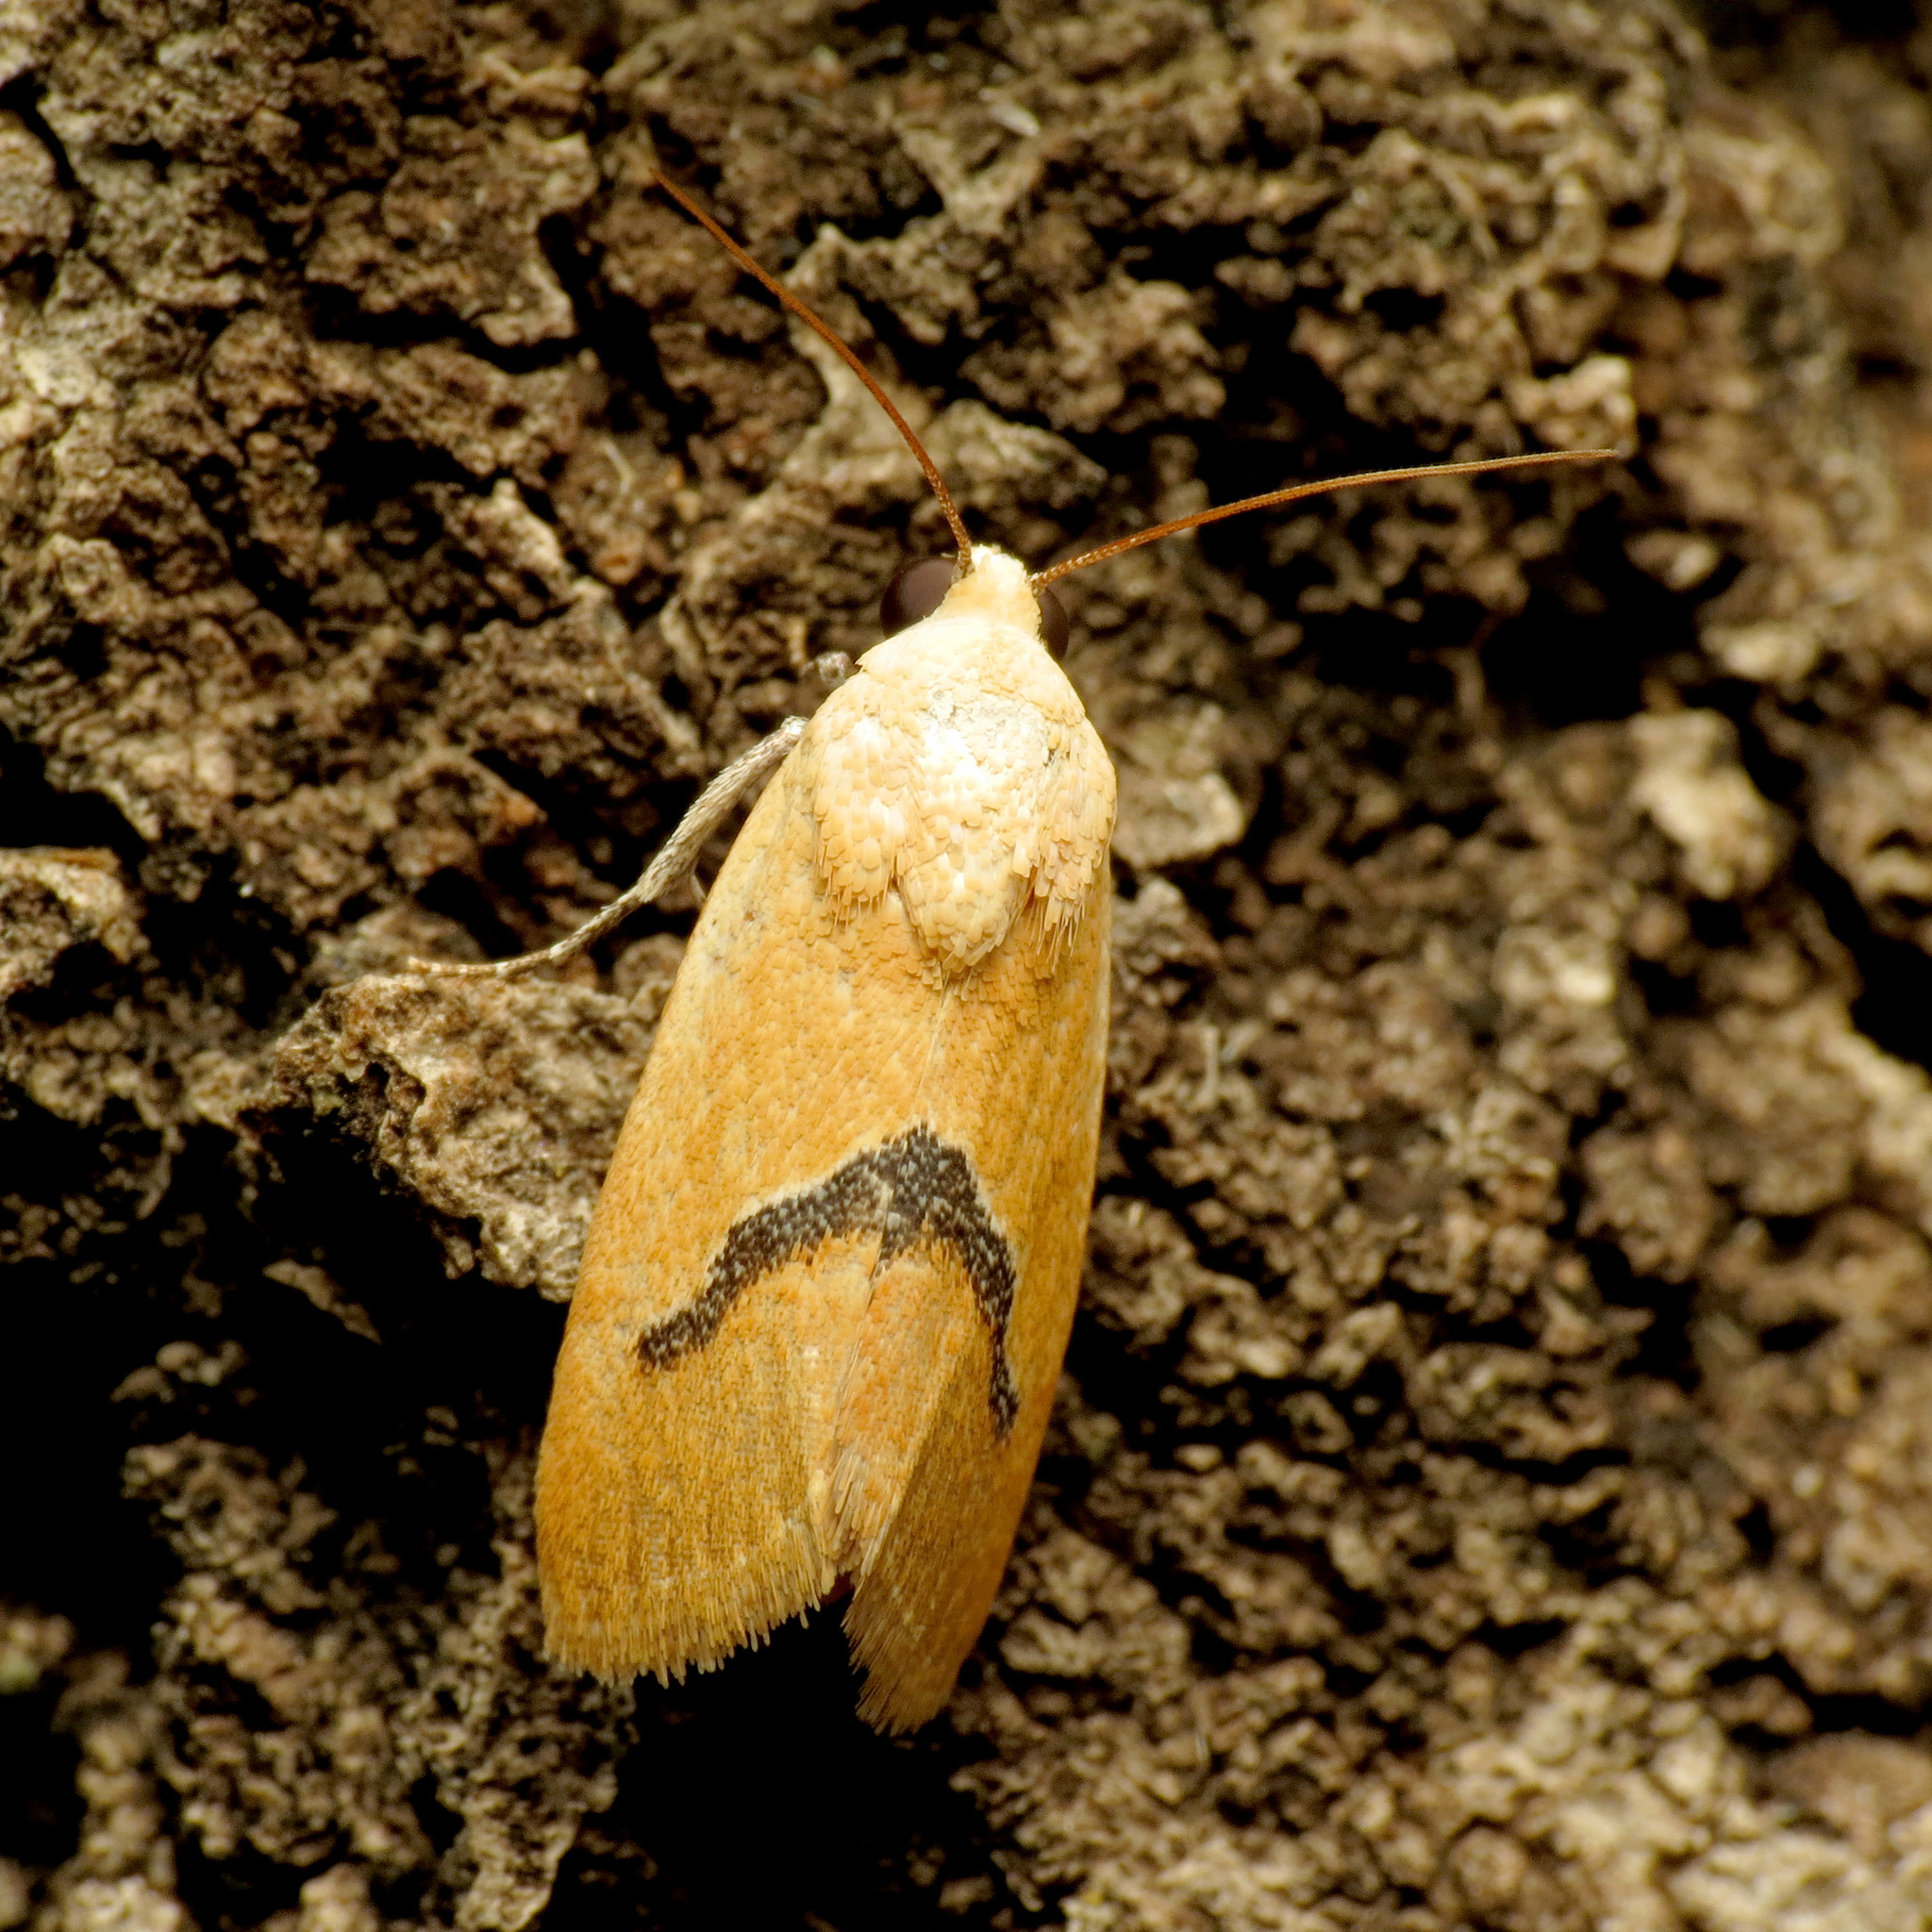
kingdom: Animalia
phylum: Arthropoda
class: Insecta
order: Lepidoptera
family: Noctuidae
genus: Ponometia
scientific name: Ponometia venustula
